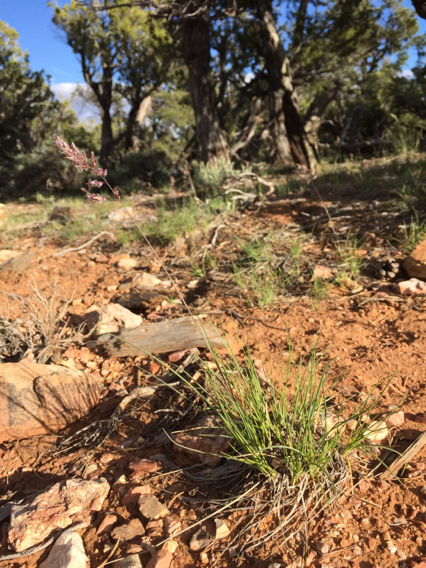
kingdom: Plantae
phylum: Tracheophyta
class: Liliopsida
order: Poales
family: Poaceae
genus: Poa
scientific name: Poa fendleriana
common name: Mutton bluegrass
